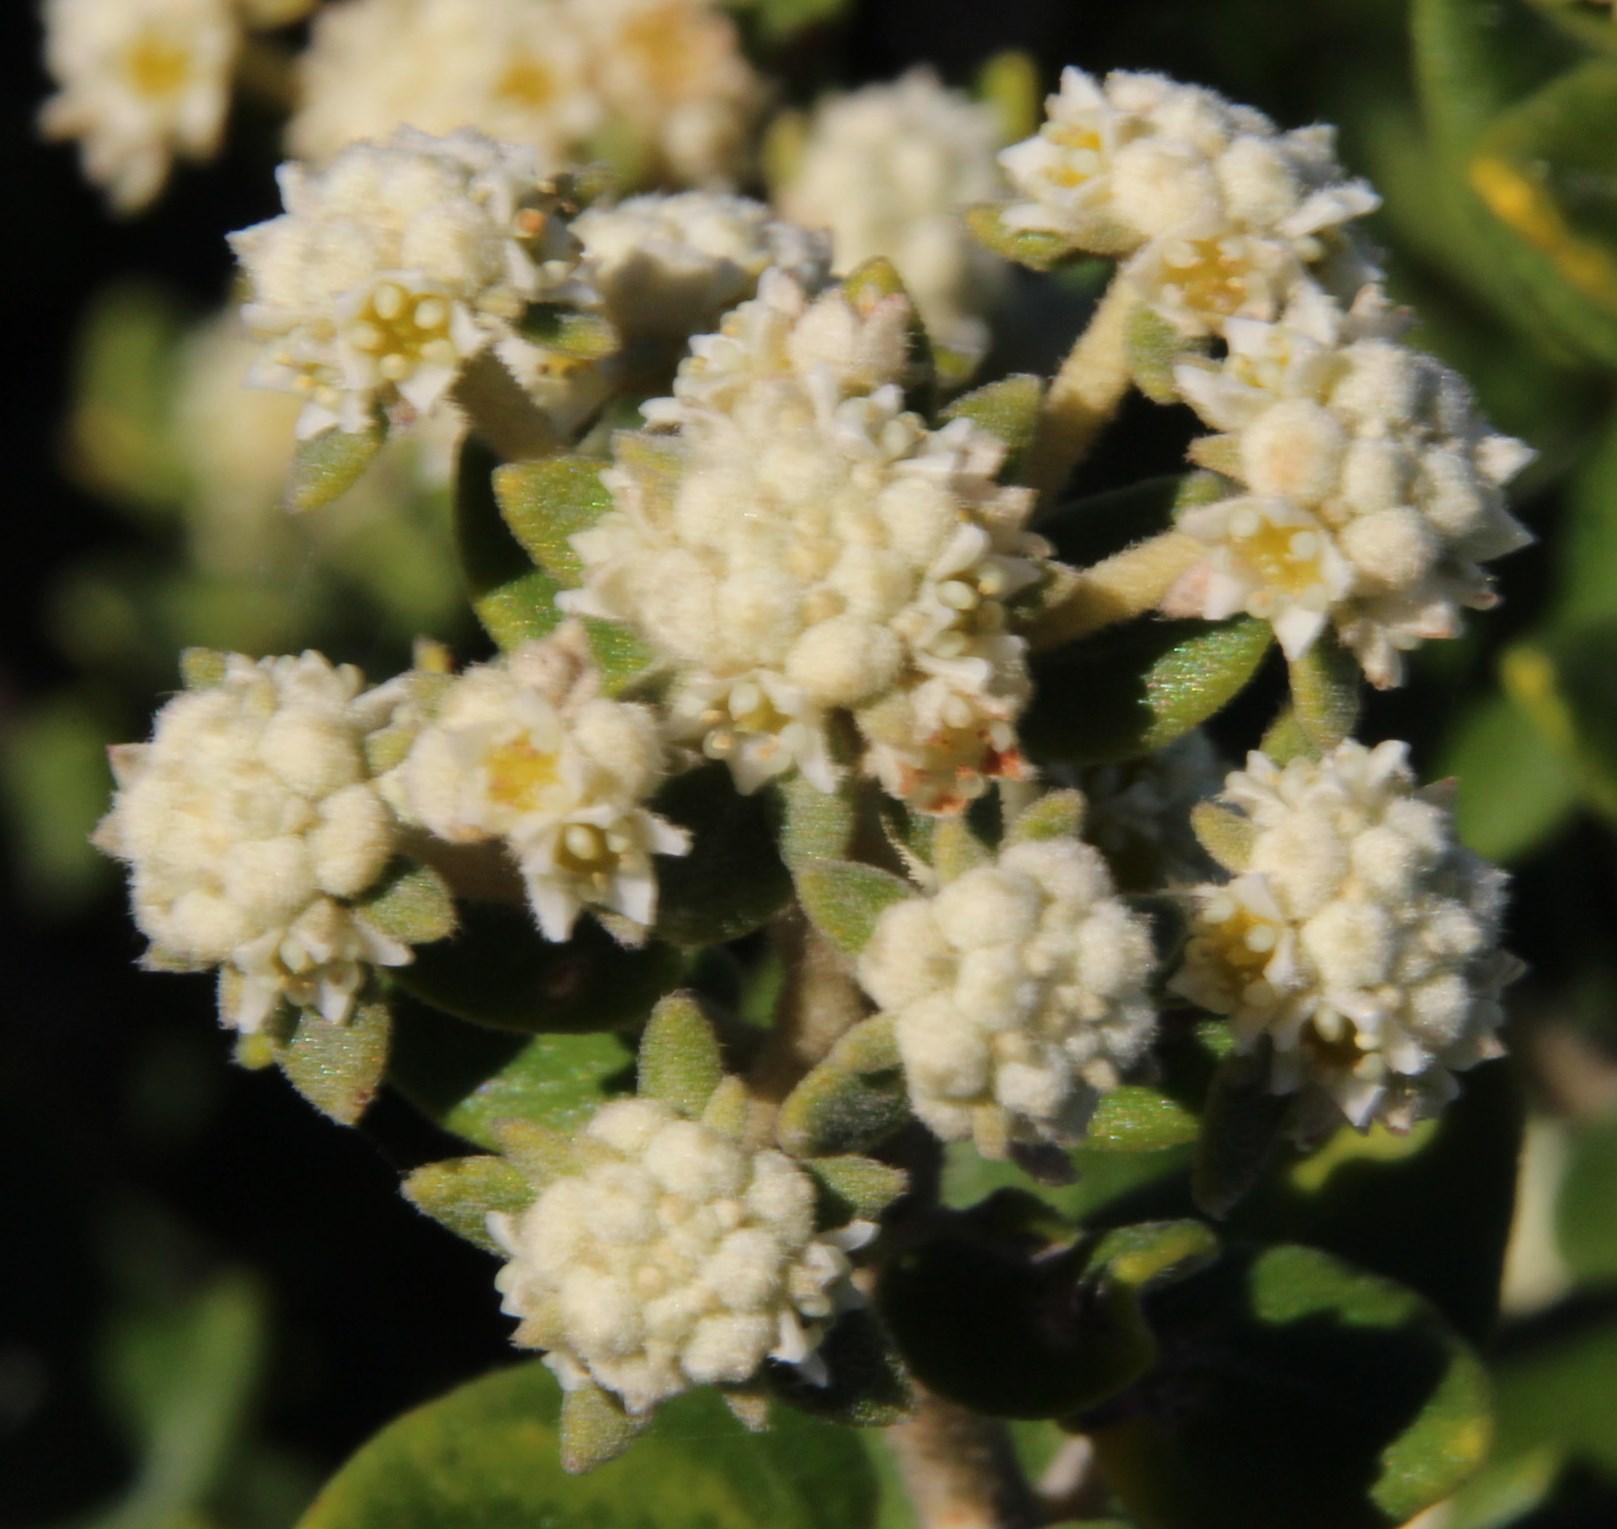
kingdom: Plantae
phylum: Tracheophyta
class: Magnoliopsida
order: Rosales
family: Rhamnaceae
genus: Phylica
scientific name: Phylica buxifolia
